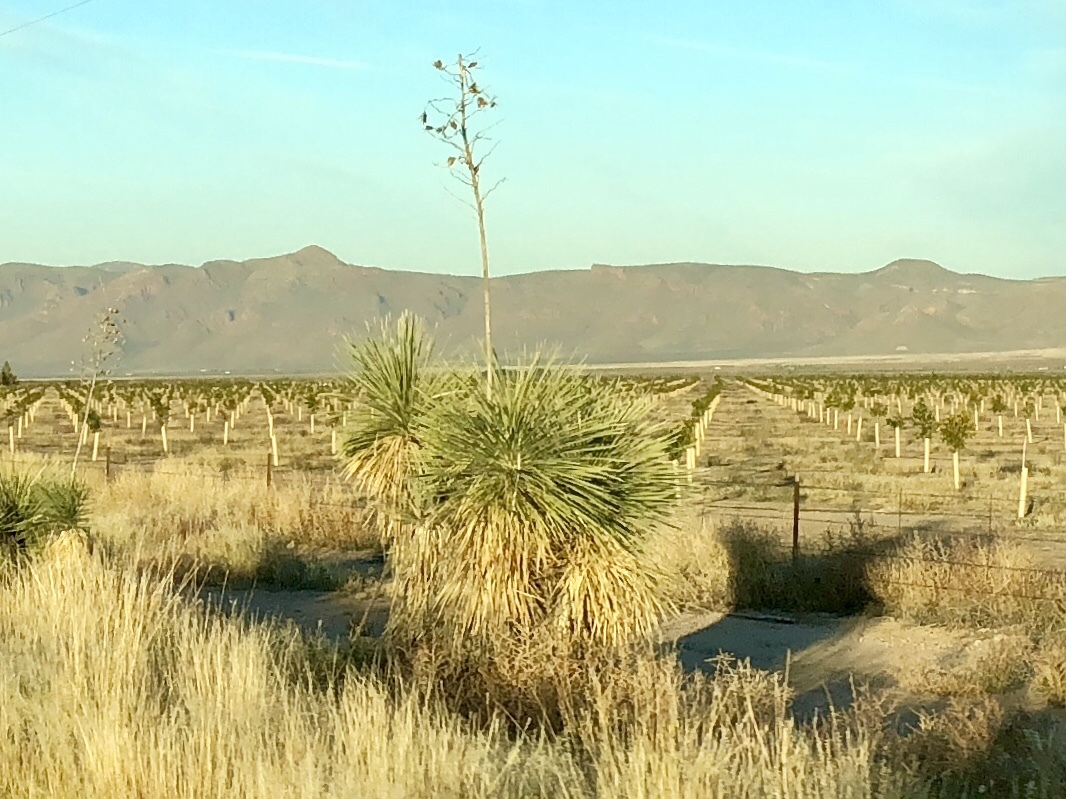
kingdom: Plantae
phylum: Tracheophyta
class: Liliopsida
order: Asparagales
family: Asparagaceae
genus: Yucca
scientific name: Yucca elata
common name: Palmella
